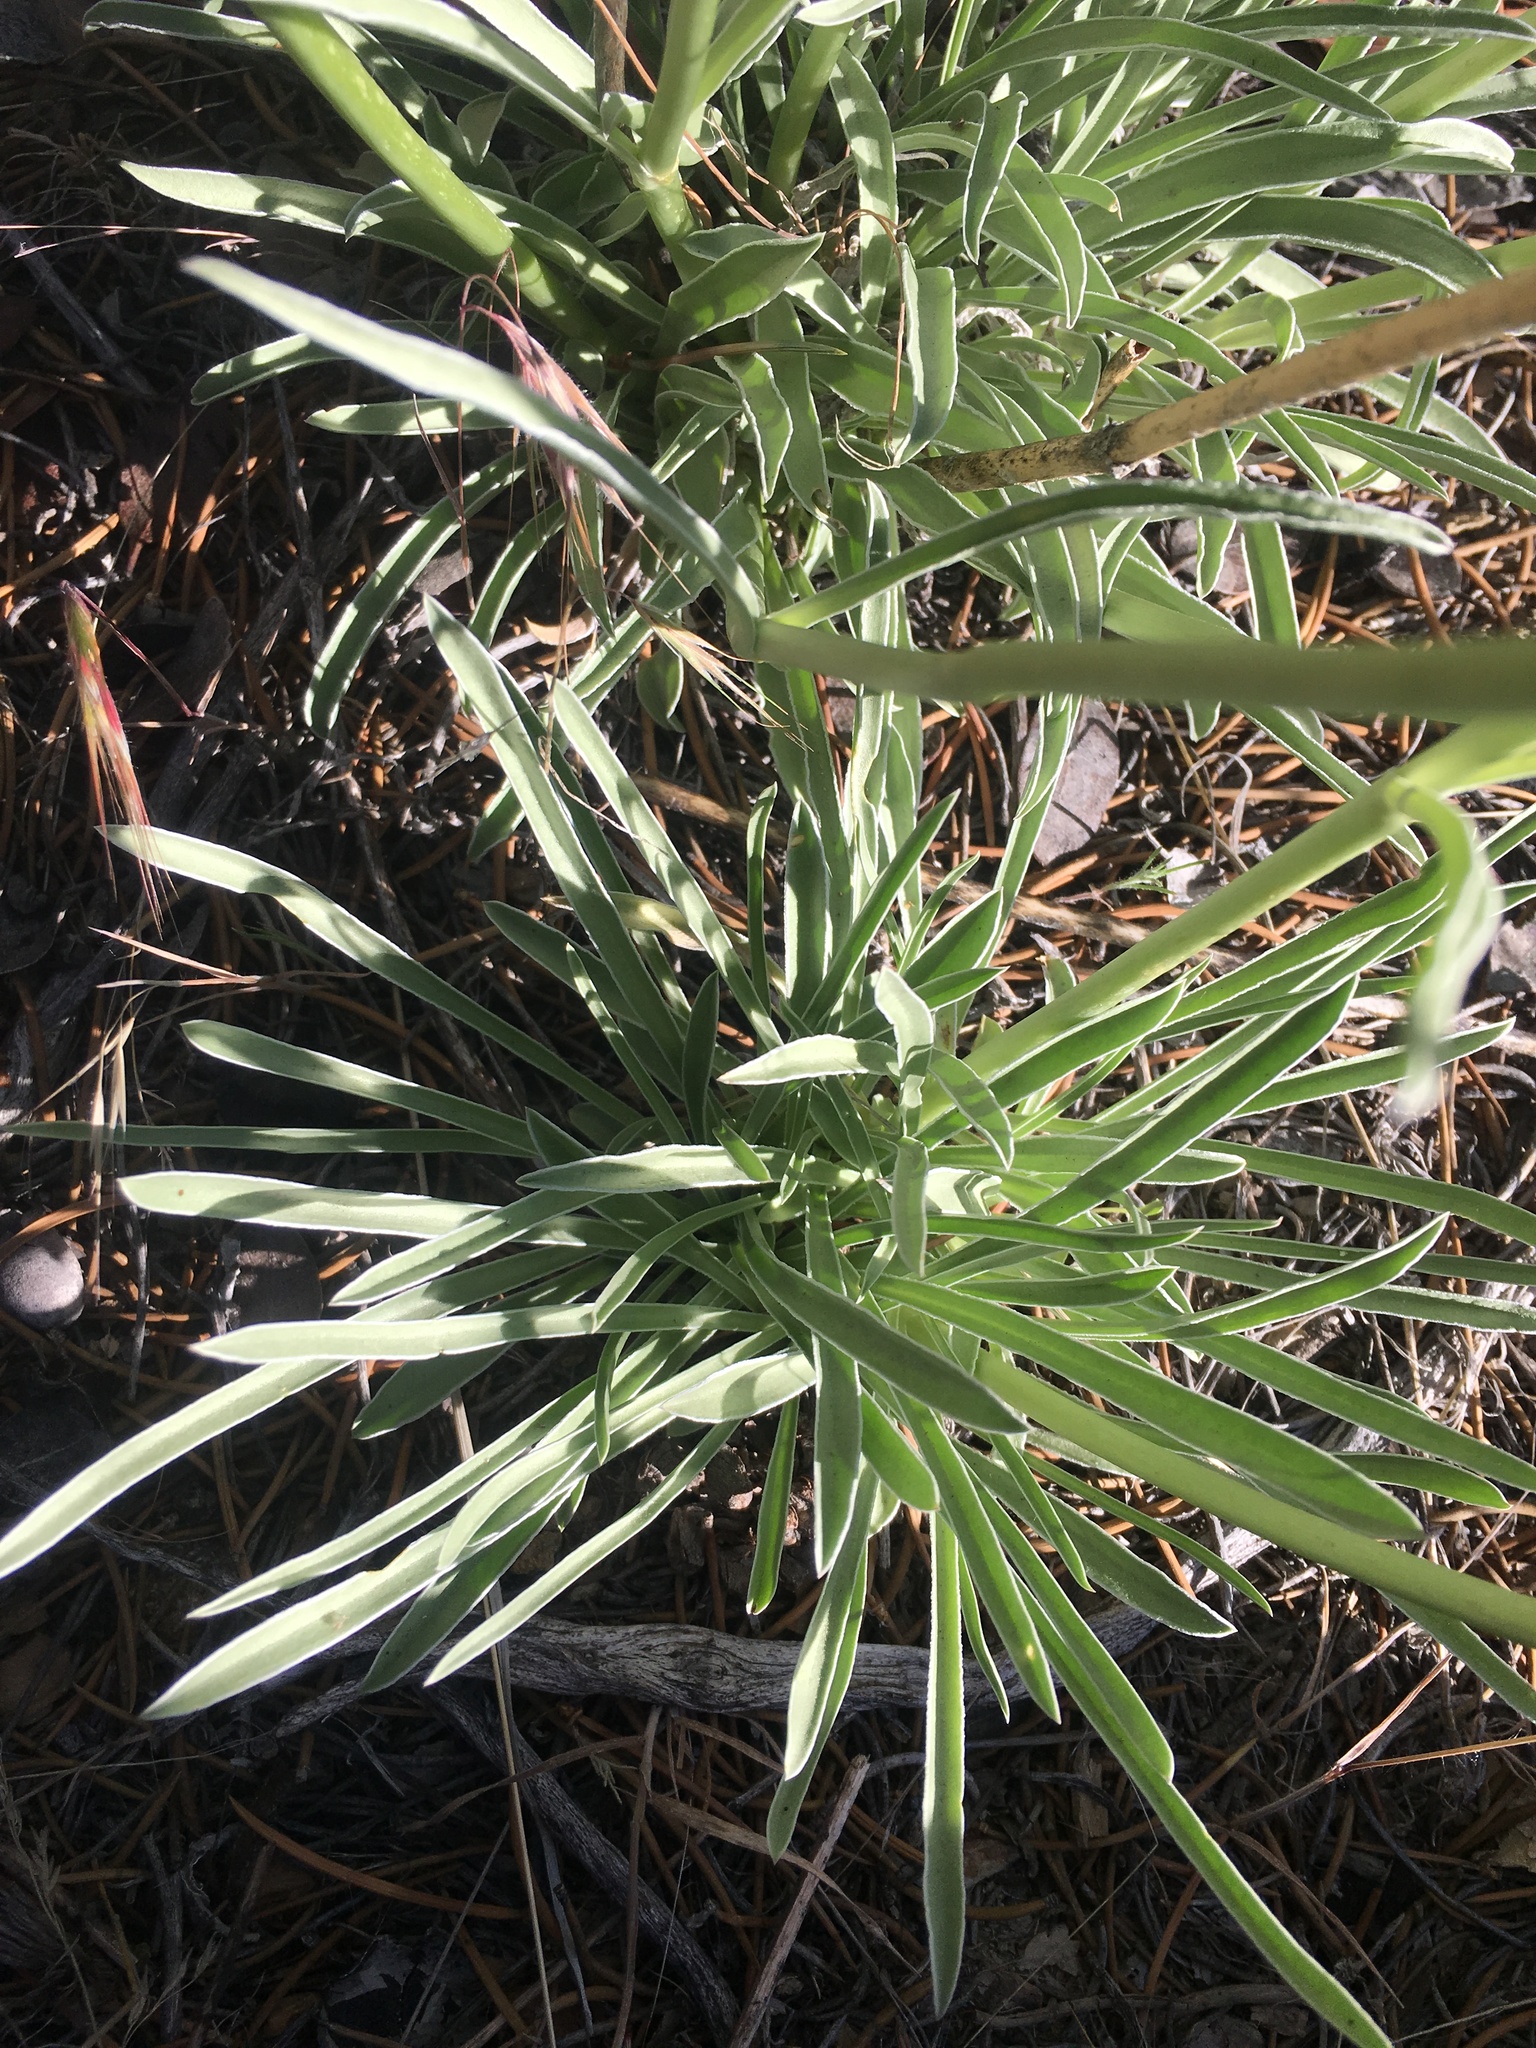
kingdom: Plantae
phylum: Tracheophyta
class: Magnoliopsida
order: Gentianales
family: Gentianaceae
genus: Frasera
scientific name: Frasera neglecta
